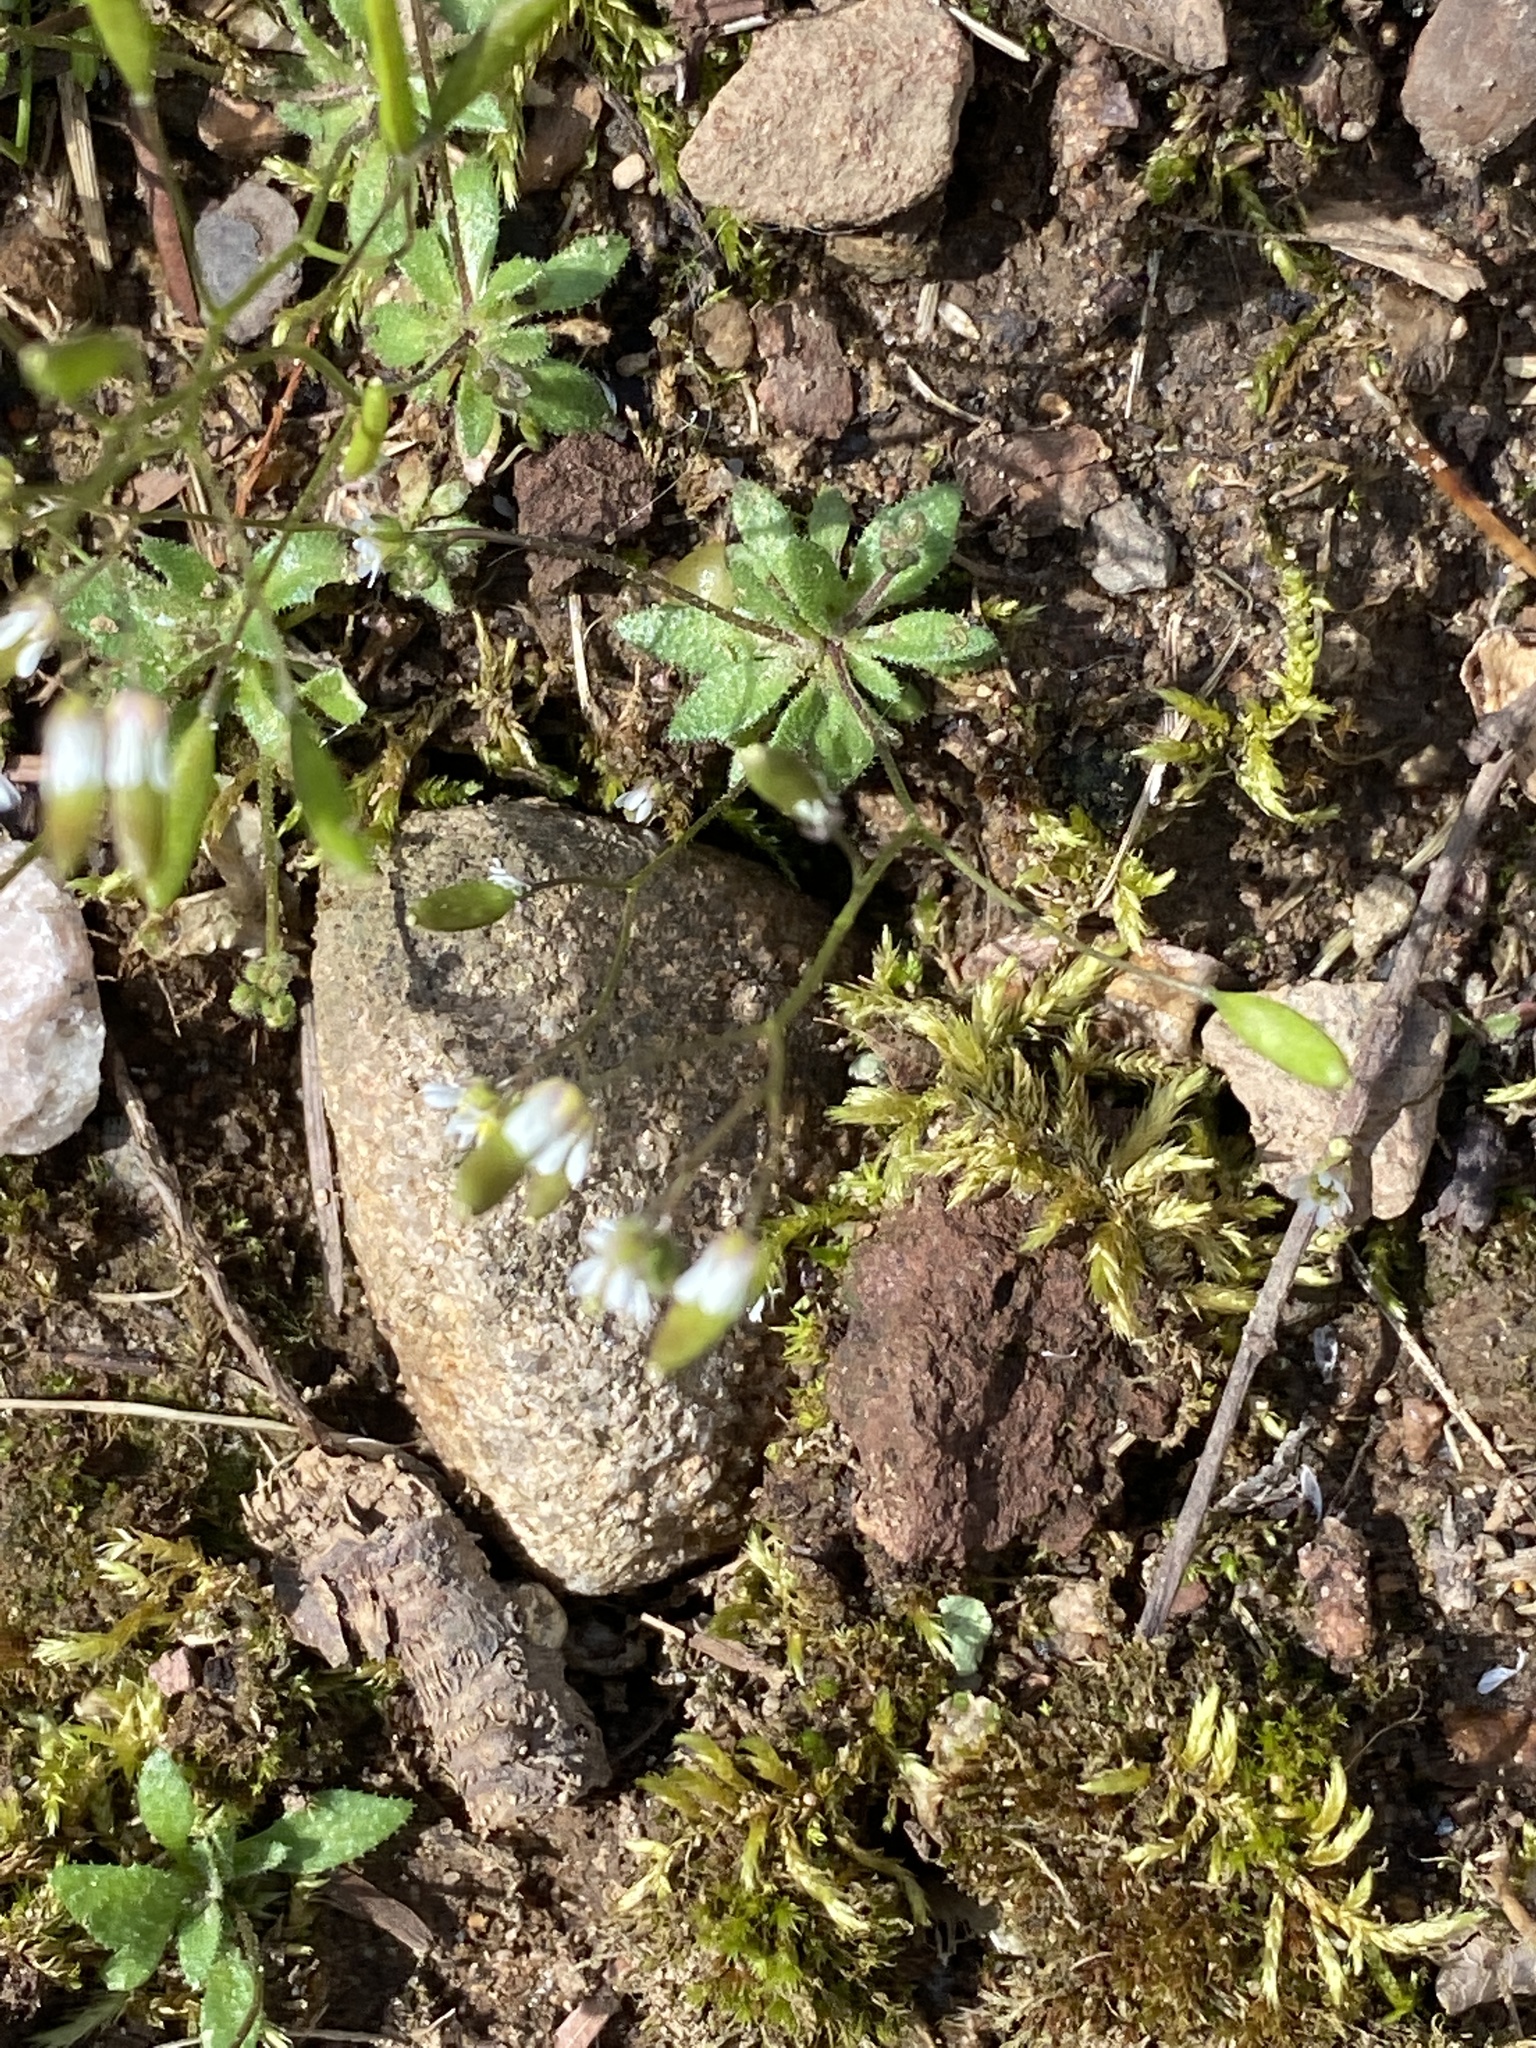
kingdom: Plantae
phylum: Tracheophyta
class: Magnoliopsida
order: Brassicales
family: Brassicaceae
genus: Draba
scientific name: Draba verna
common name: Spring draba
